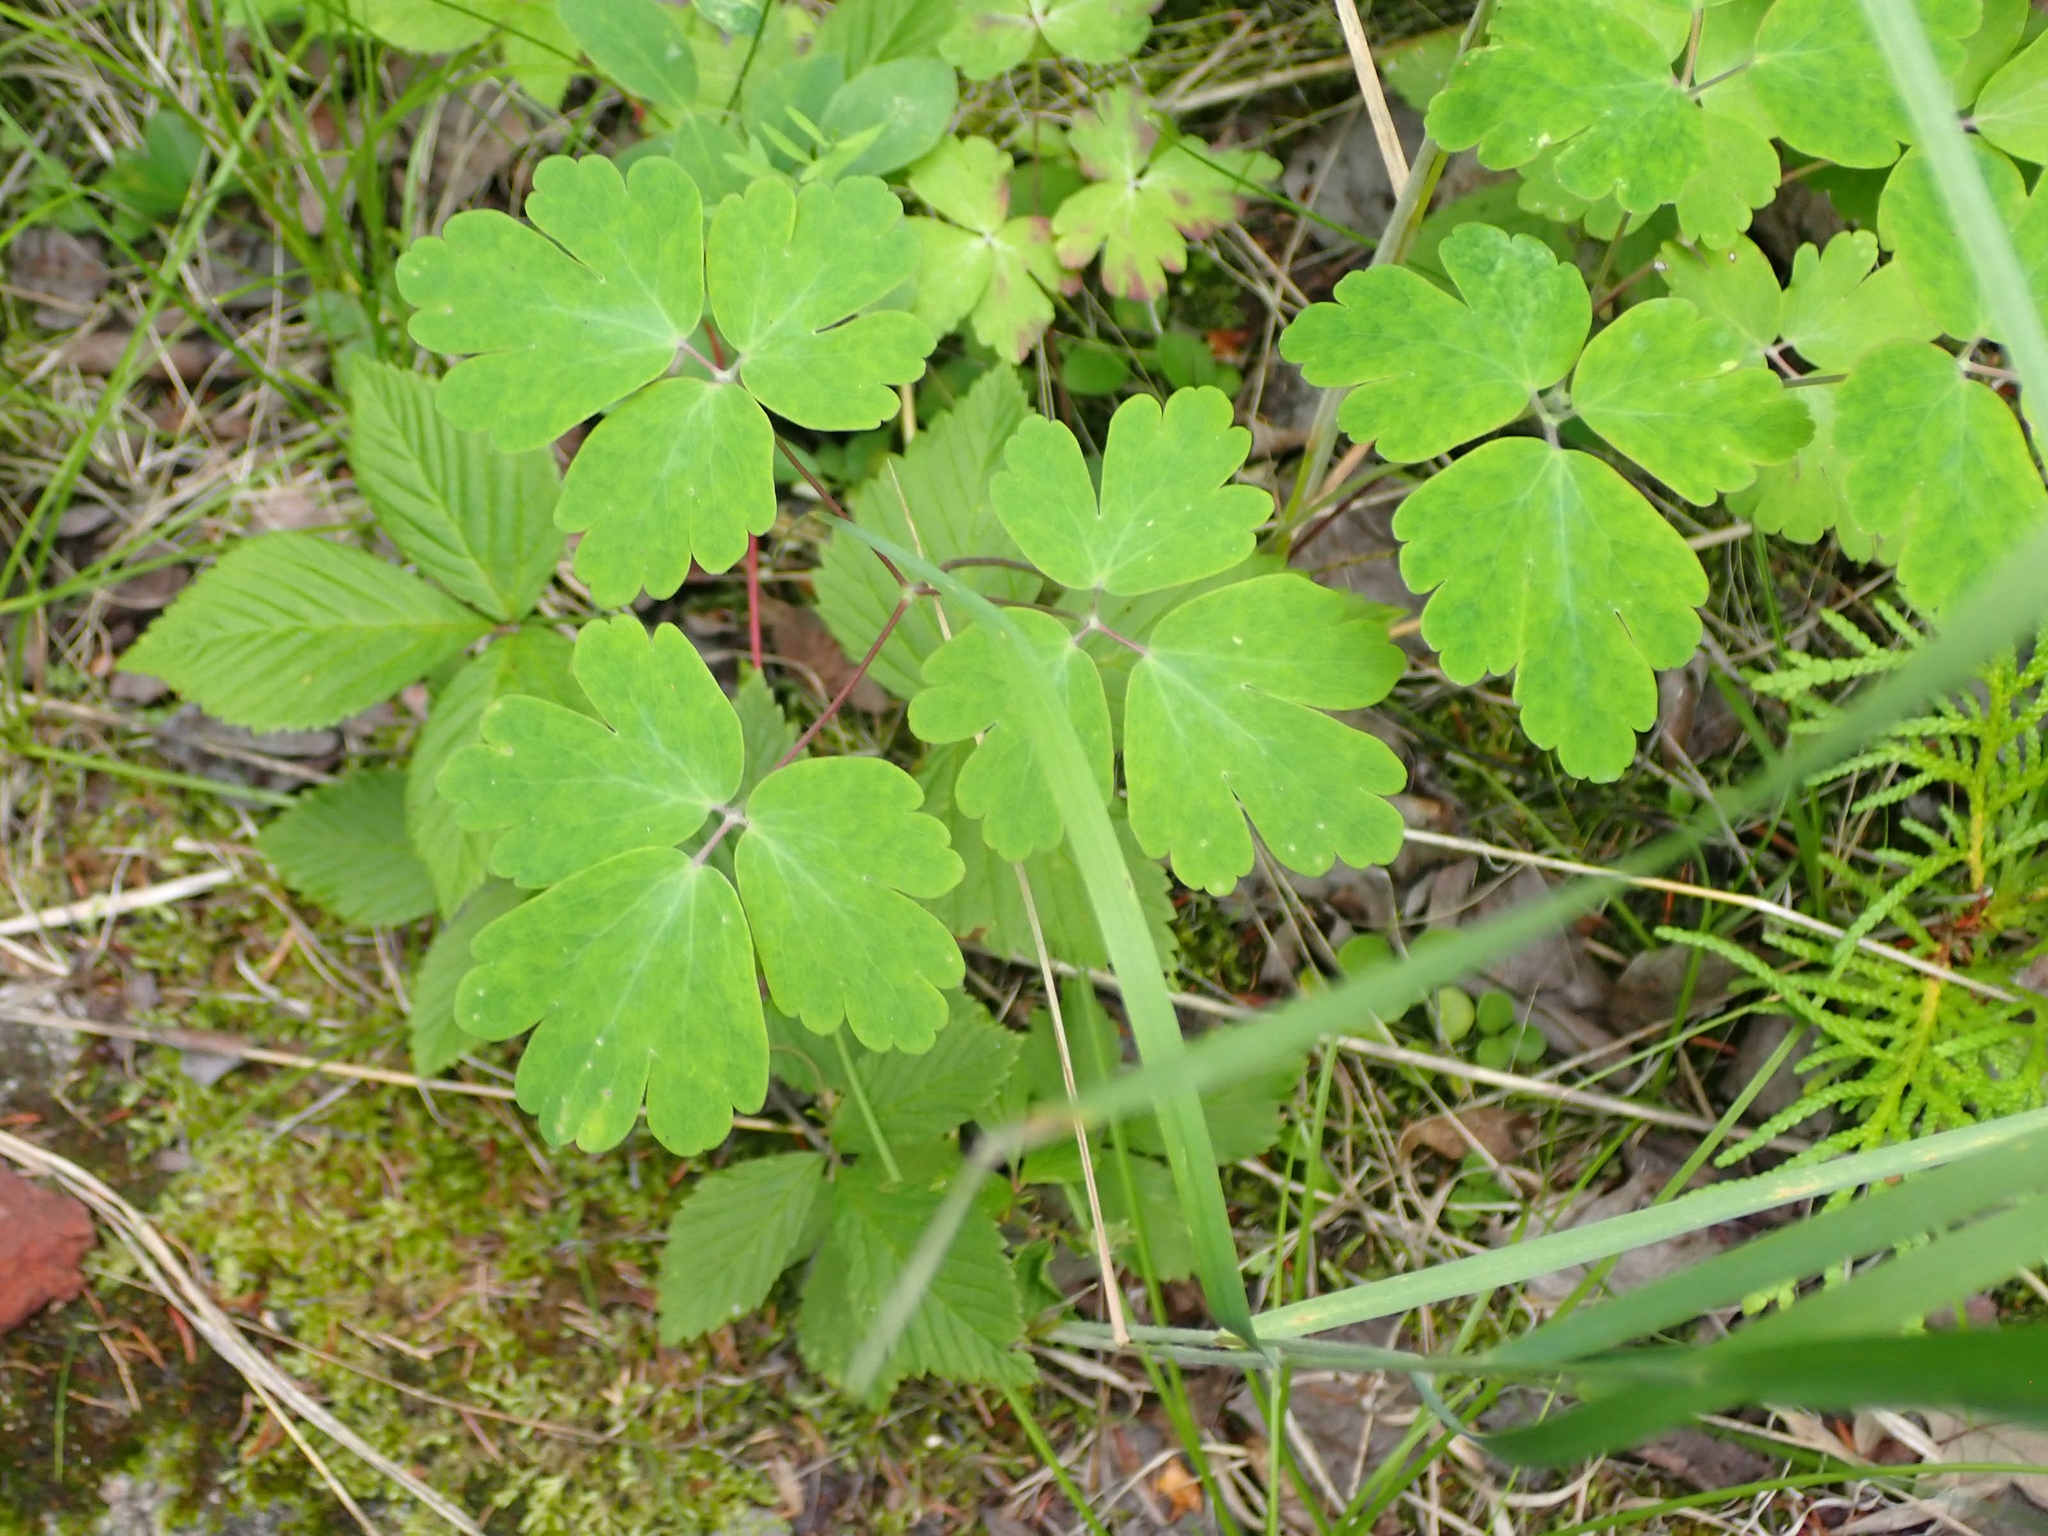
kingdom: Plantae
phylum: Tracheophyta
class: Magnoliopsida
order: Ranunculales
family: Ranunculaceae
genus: Aquilegia
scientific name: Aquilegia canadensis
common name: American columbine
